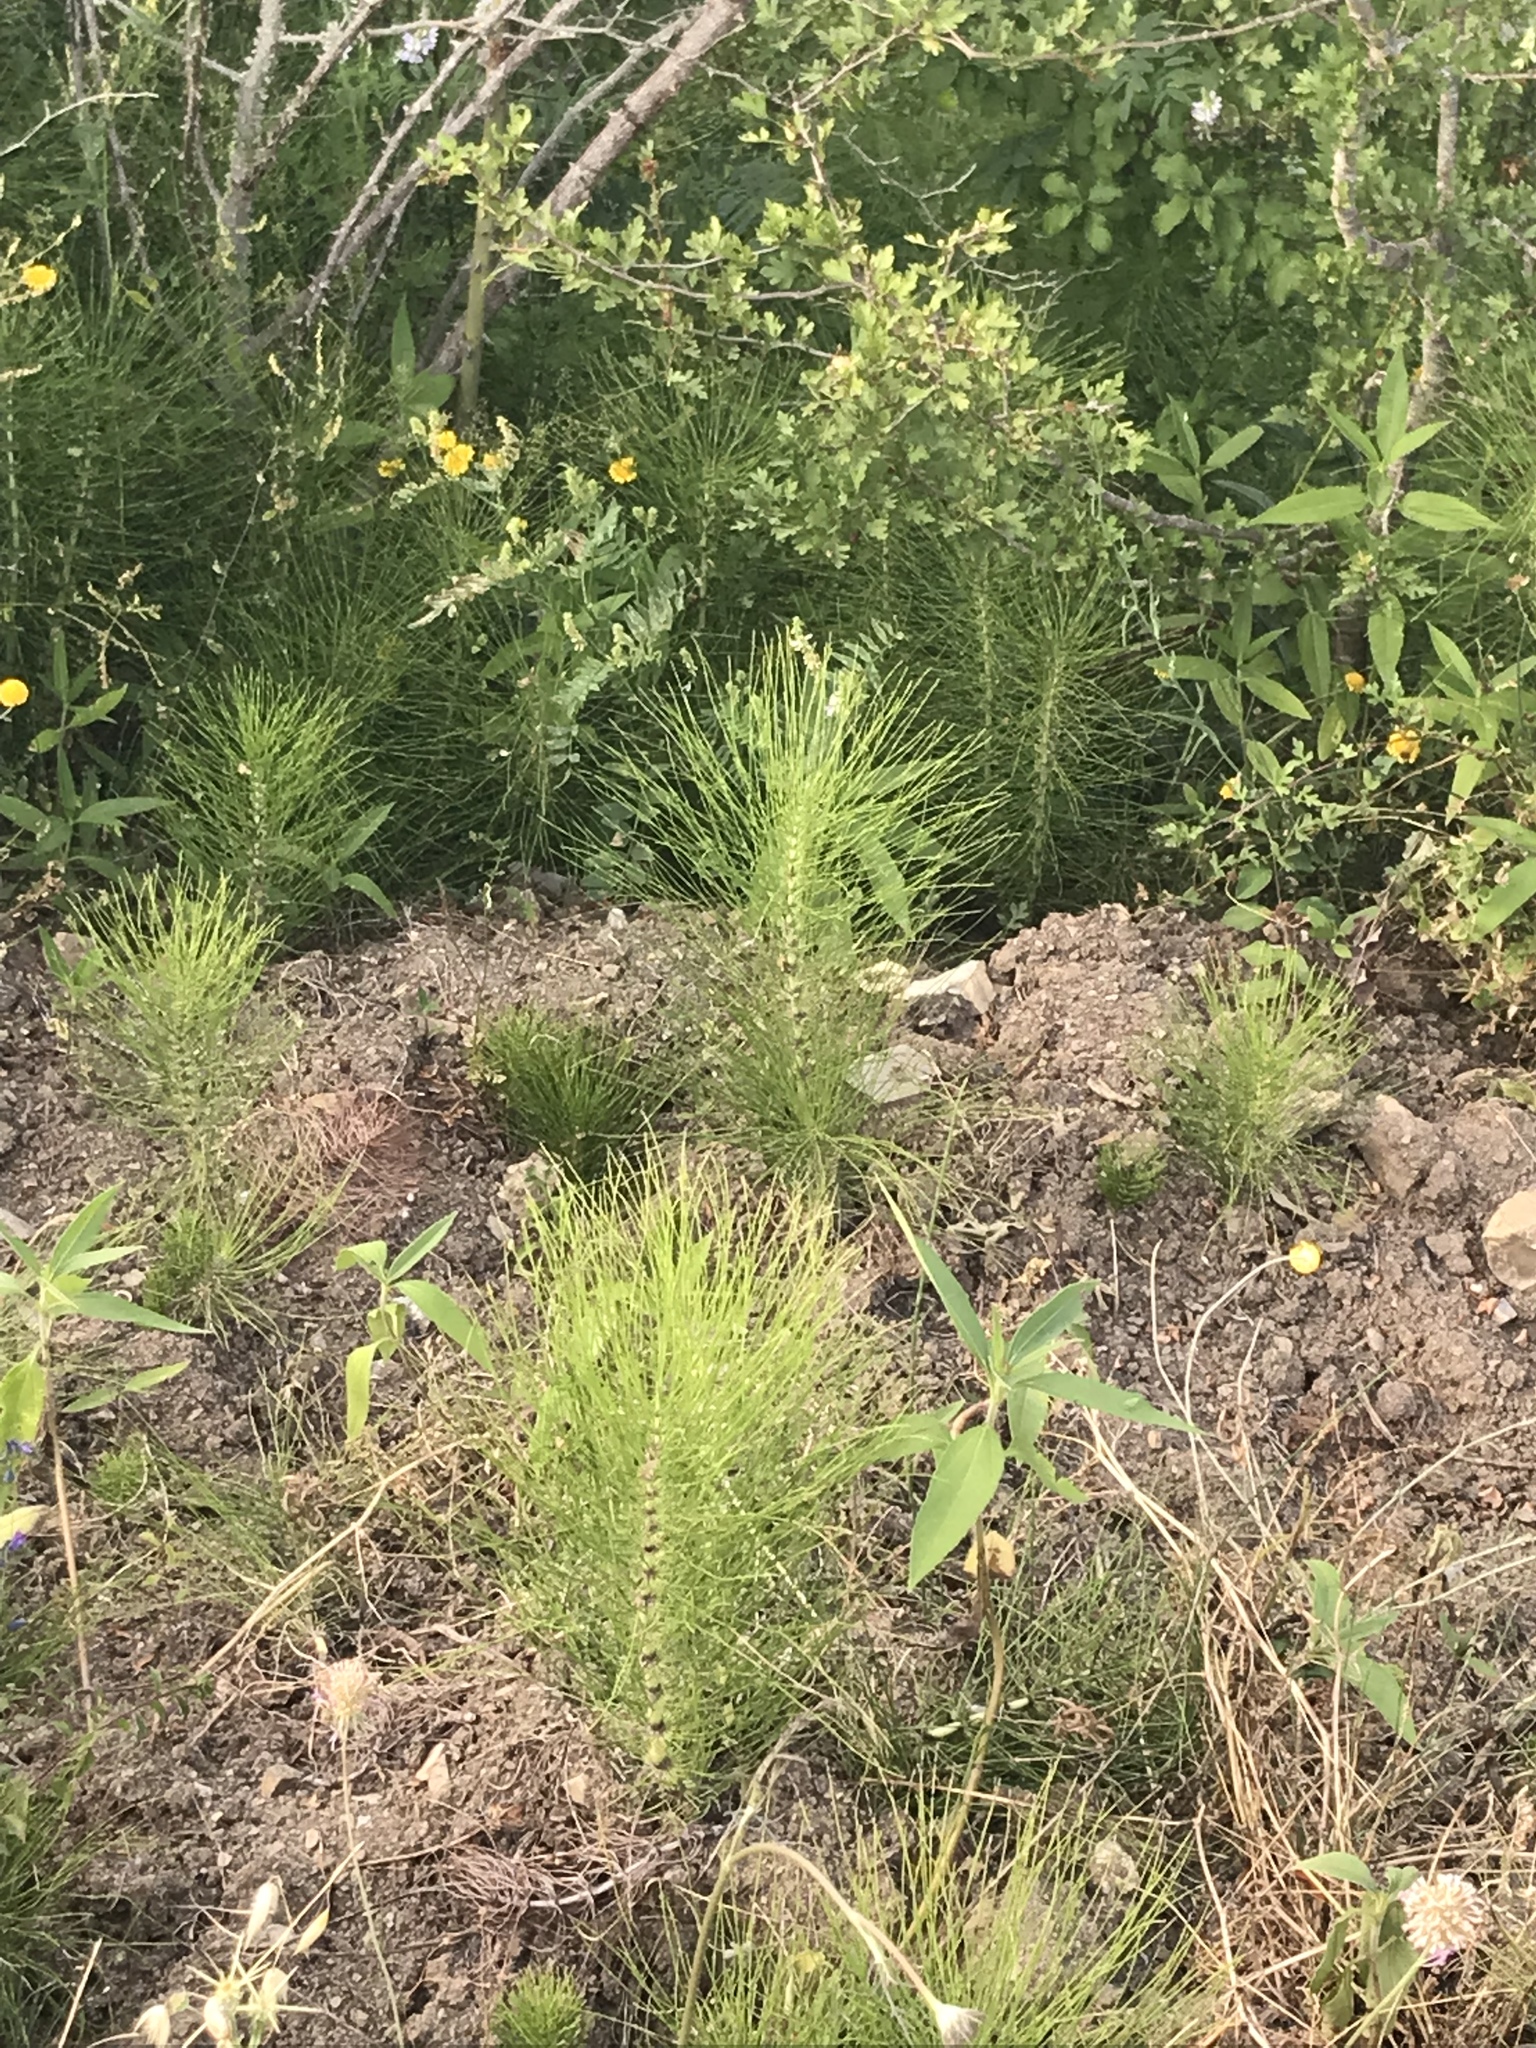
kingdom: Plantae
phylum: Tracheophyta
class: Polypodiopsida
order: Equisetales
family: Equisetaceae
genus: Equisetum
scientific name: Equisetum telmateia
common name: Great horsetail
